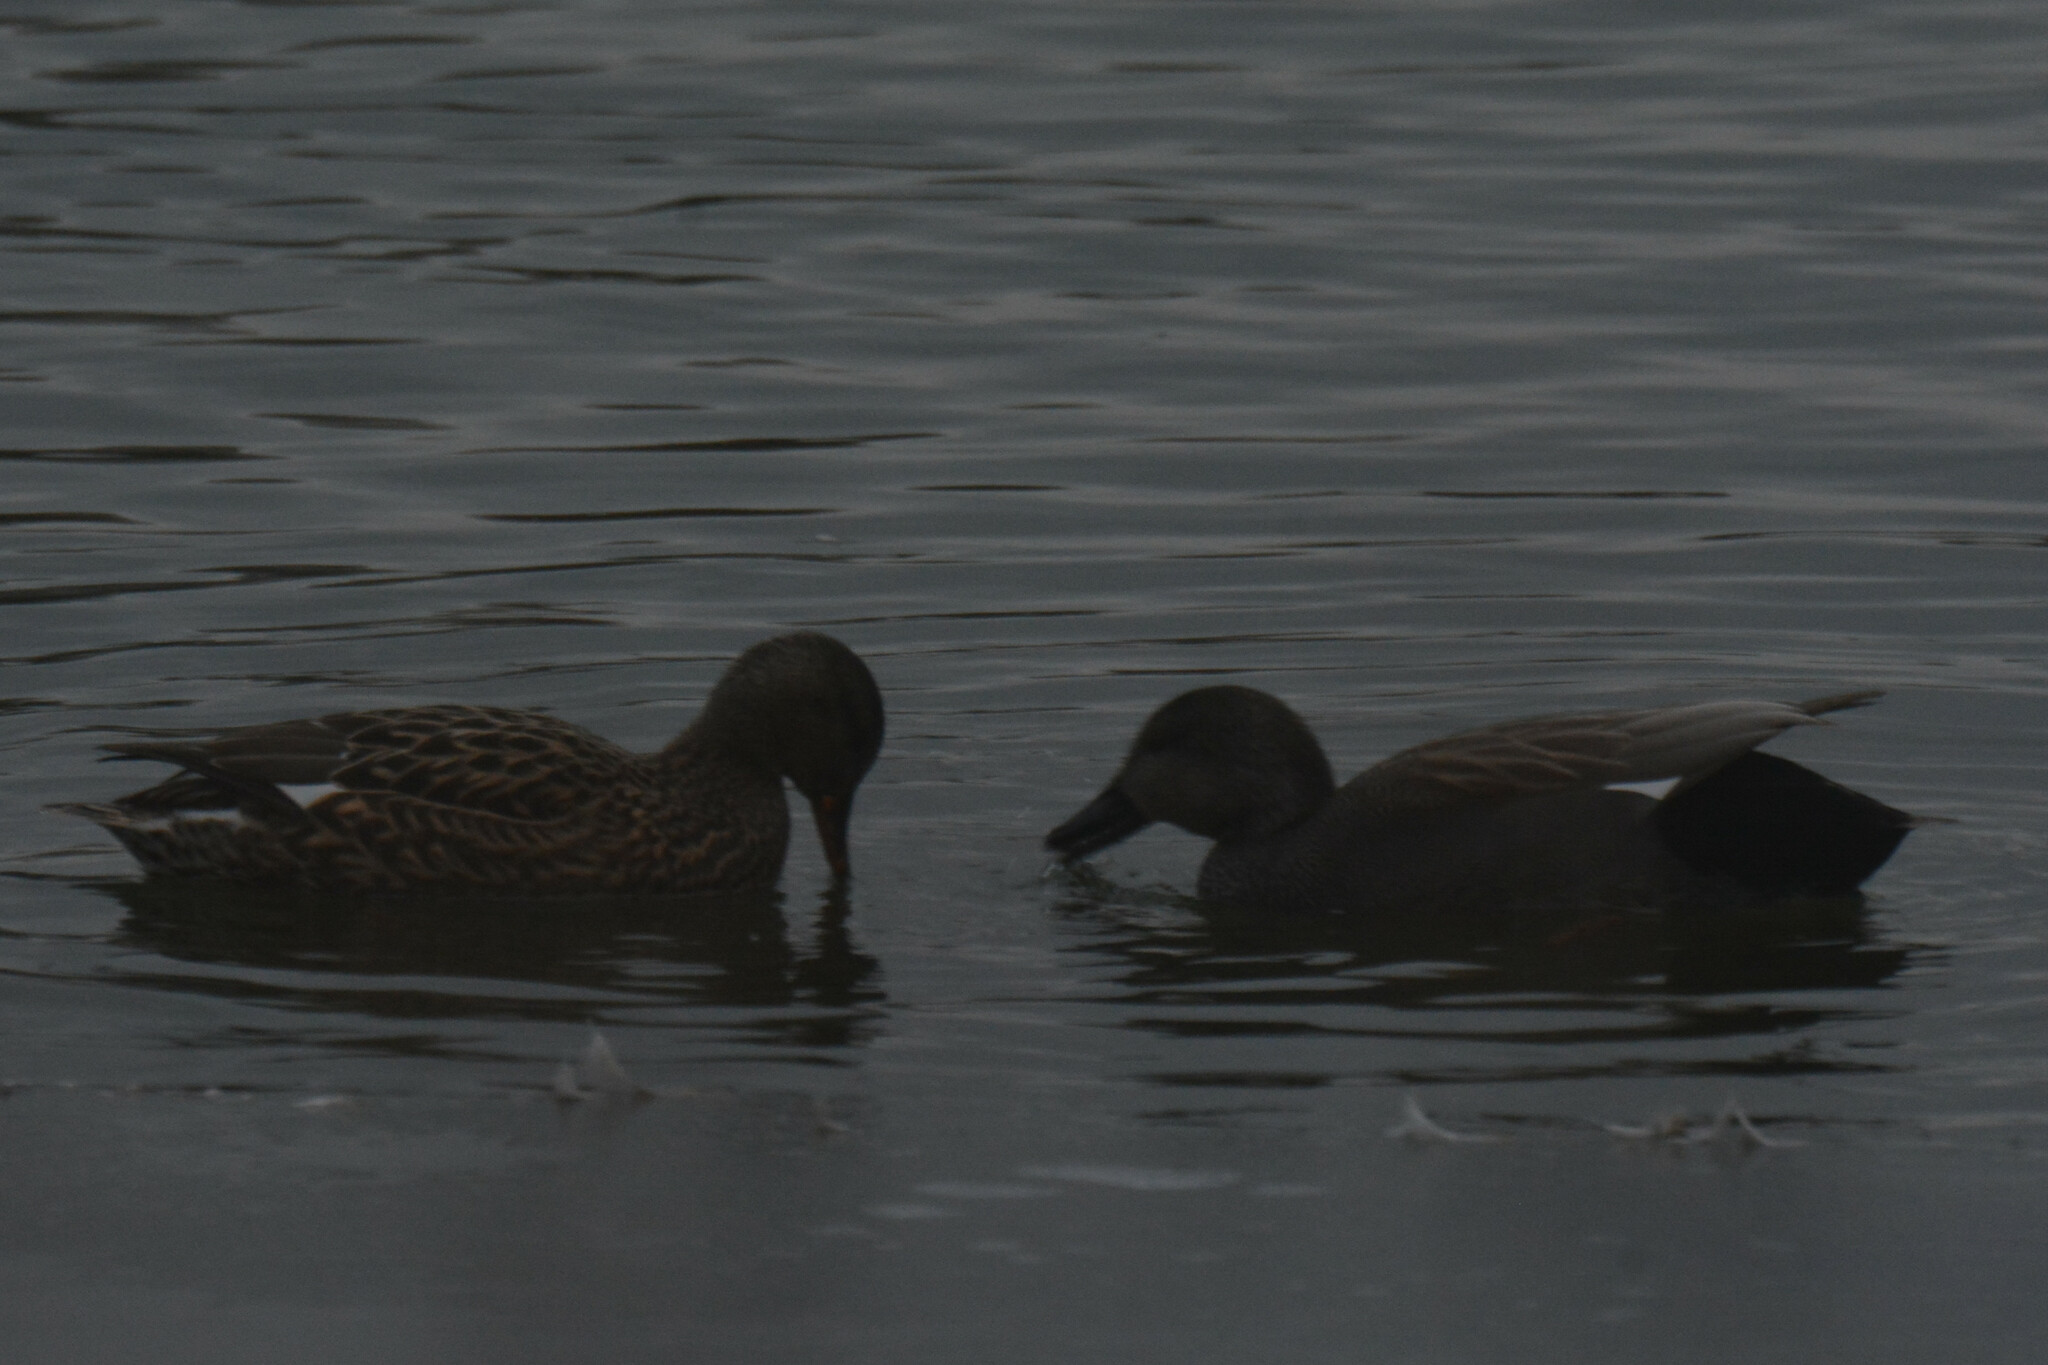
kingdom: Animalia
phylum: Chordata
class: Aves
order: Anseriformes
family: Anatidae
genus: Mareca
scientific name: Mareca strepera
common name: Gadwall
